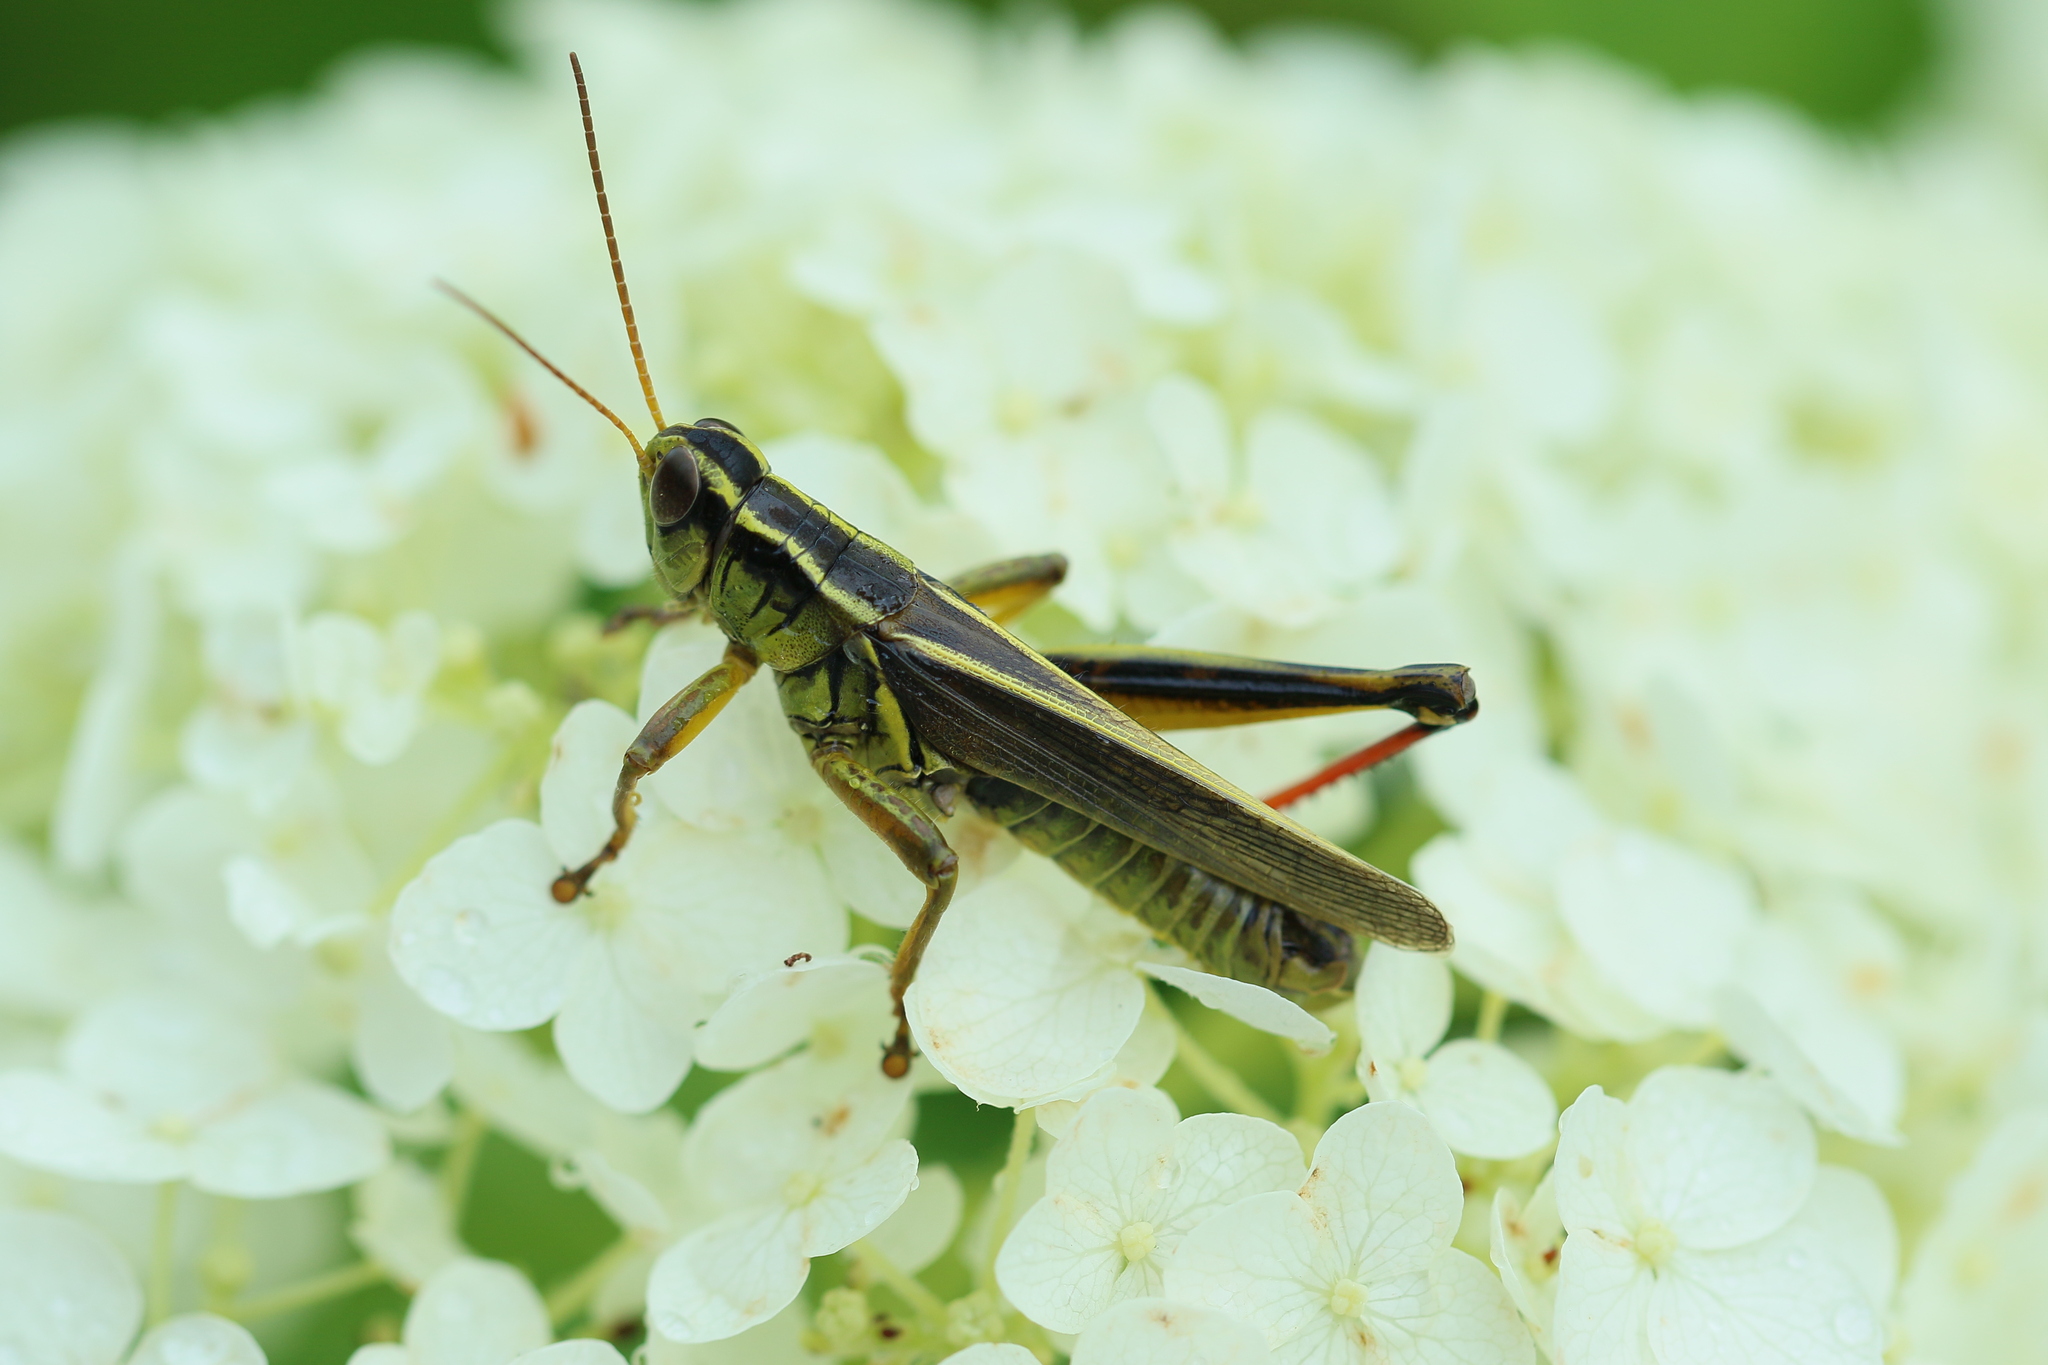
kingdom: Animalia
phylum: Arthropoda
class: Insecta
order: Orthoptera
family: Acrididae
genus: Melanoplus
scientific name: Melanoplus bivittatus
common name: Two-striped grasshopper
